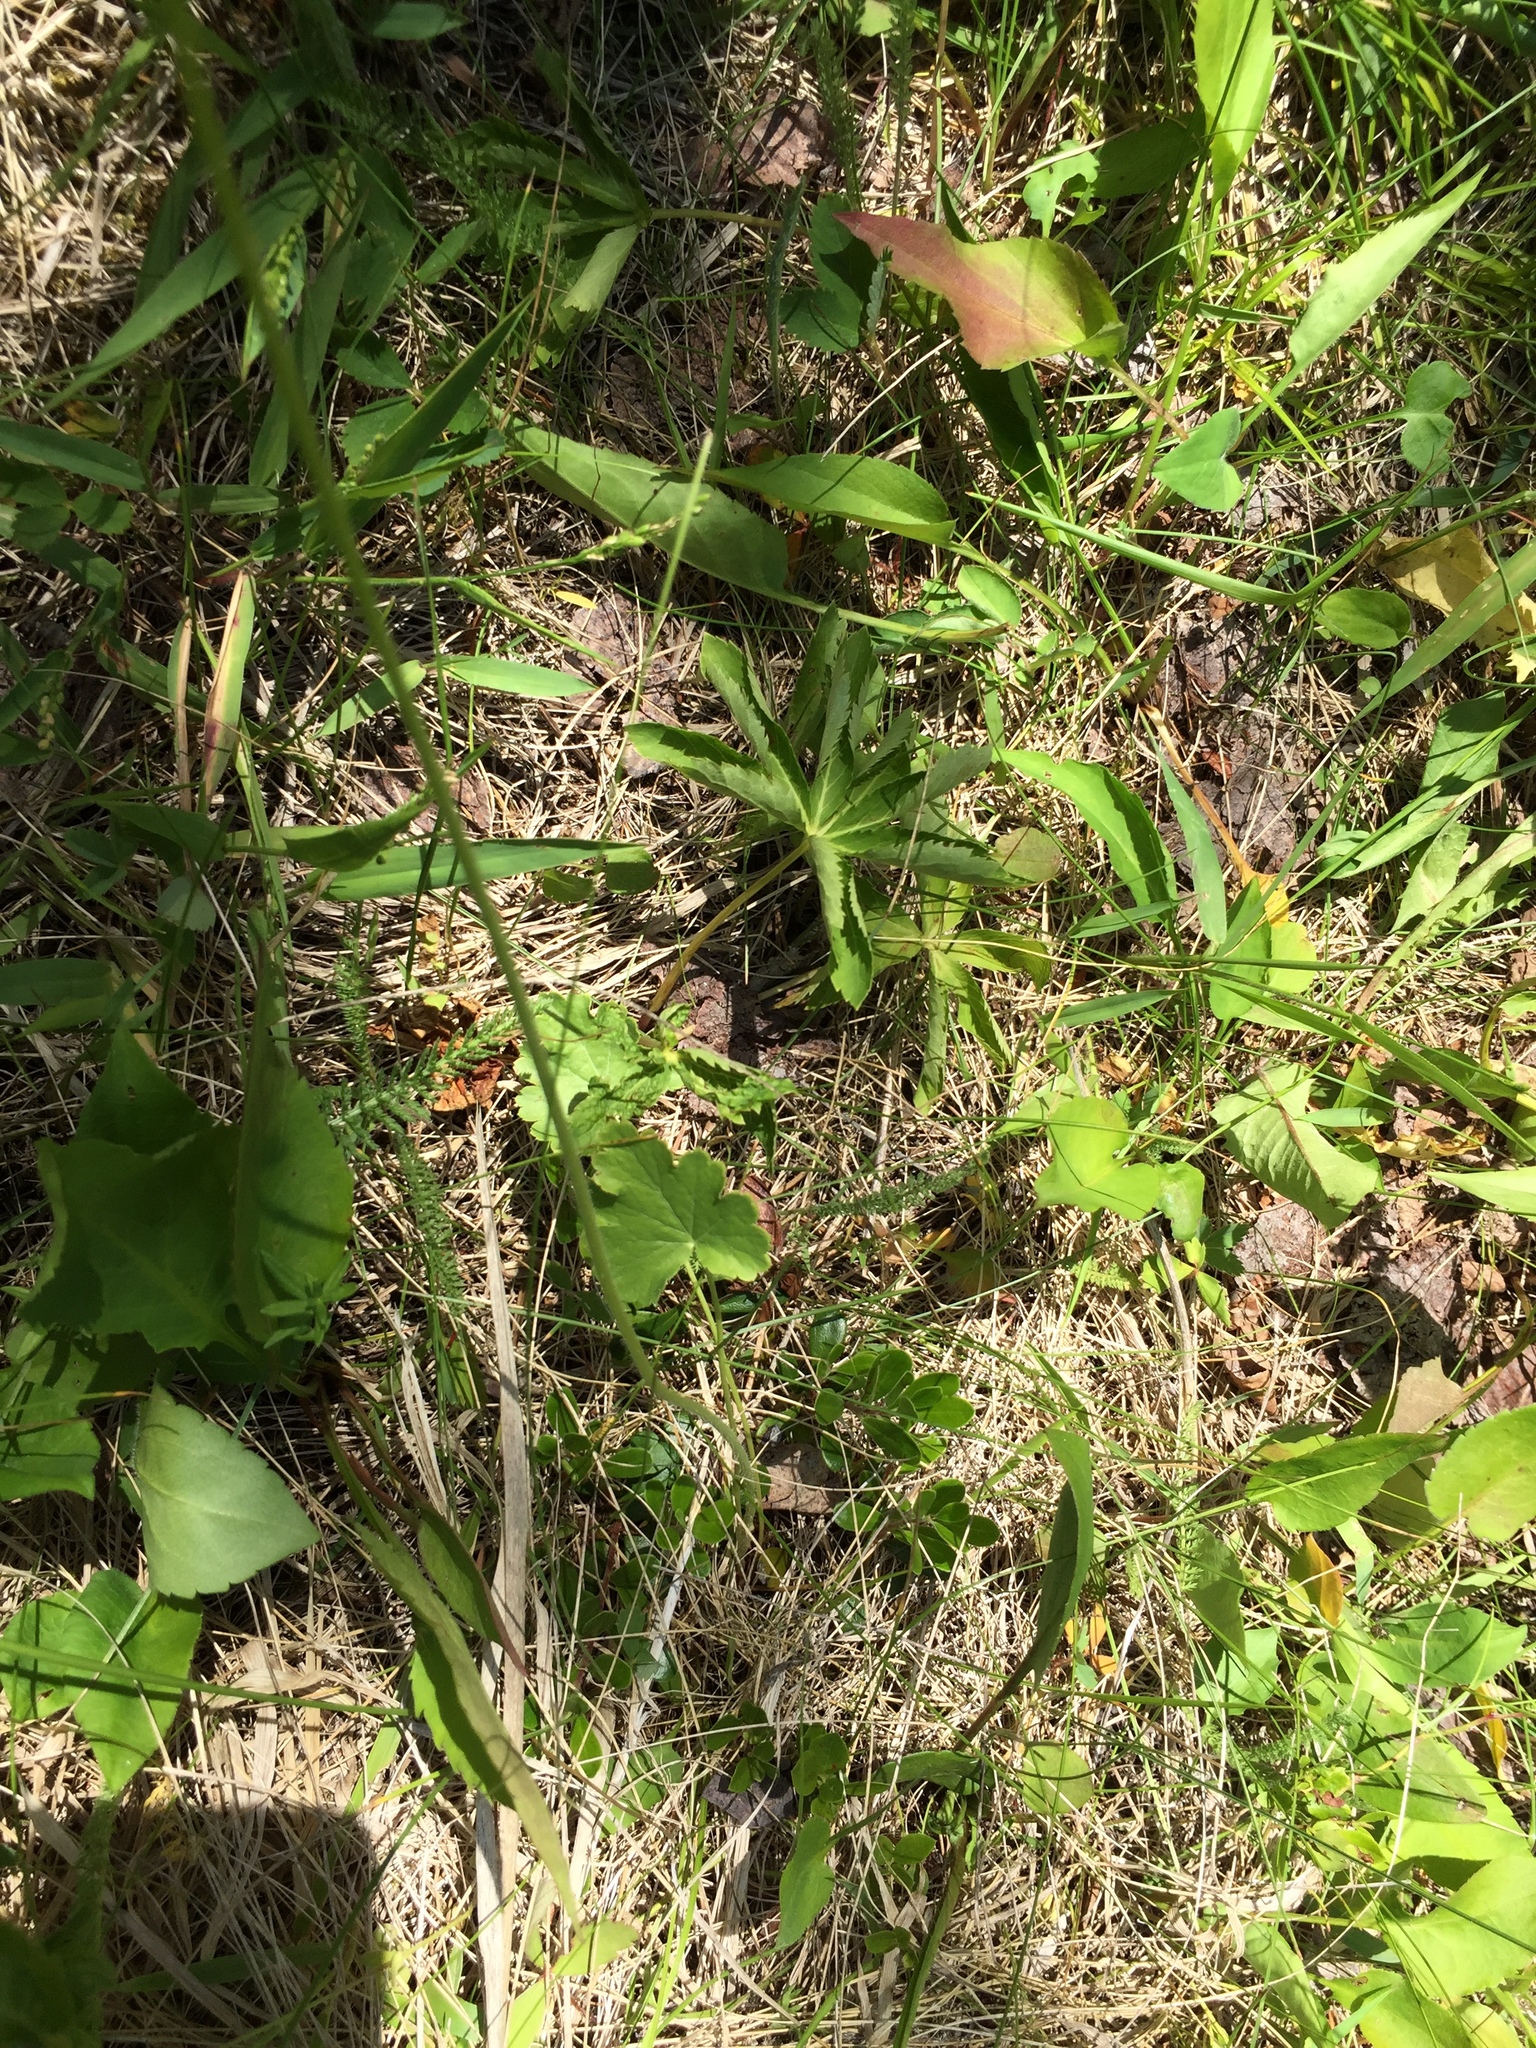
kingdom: Plantae
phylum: Tracheophyta
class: Magnoliopsida
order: Saxifragales
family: Saxifragaceae
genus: Heuchera
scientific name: Heuchera richardsonii
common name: Richardson's alumroot
